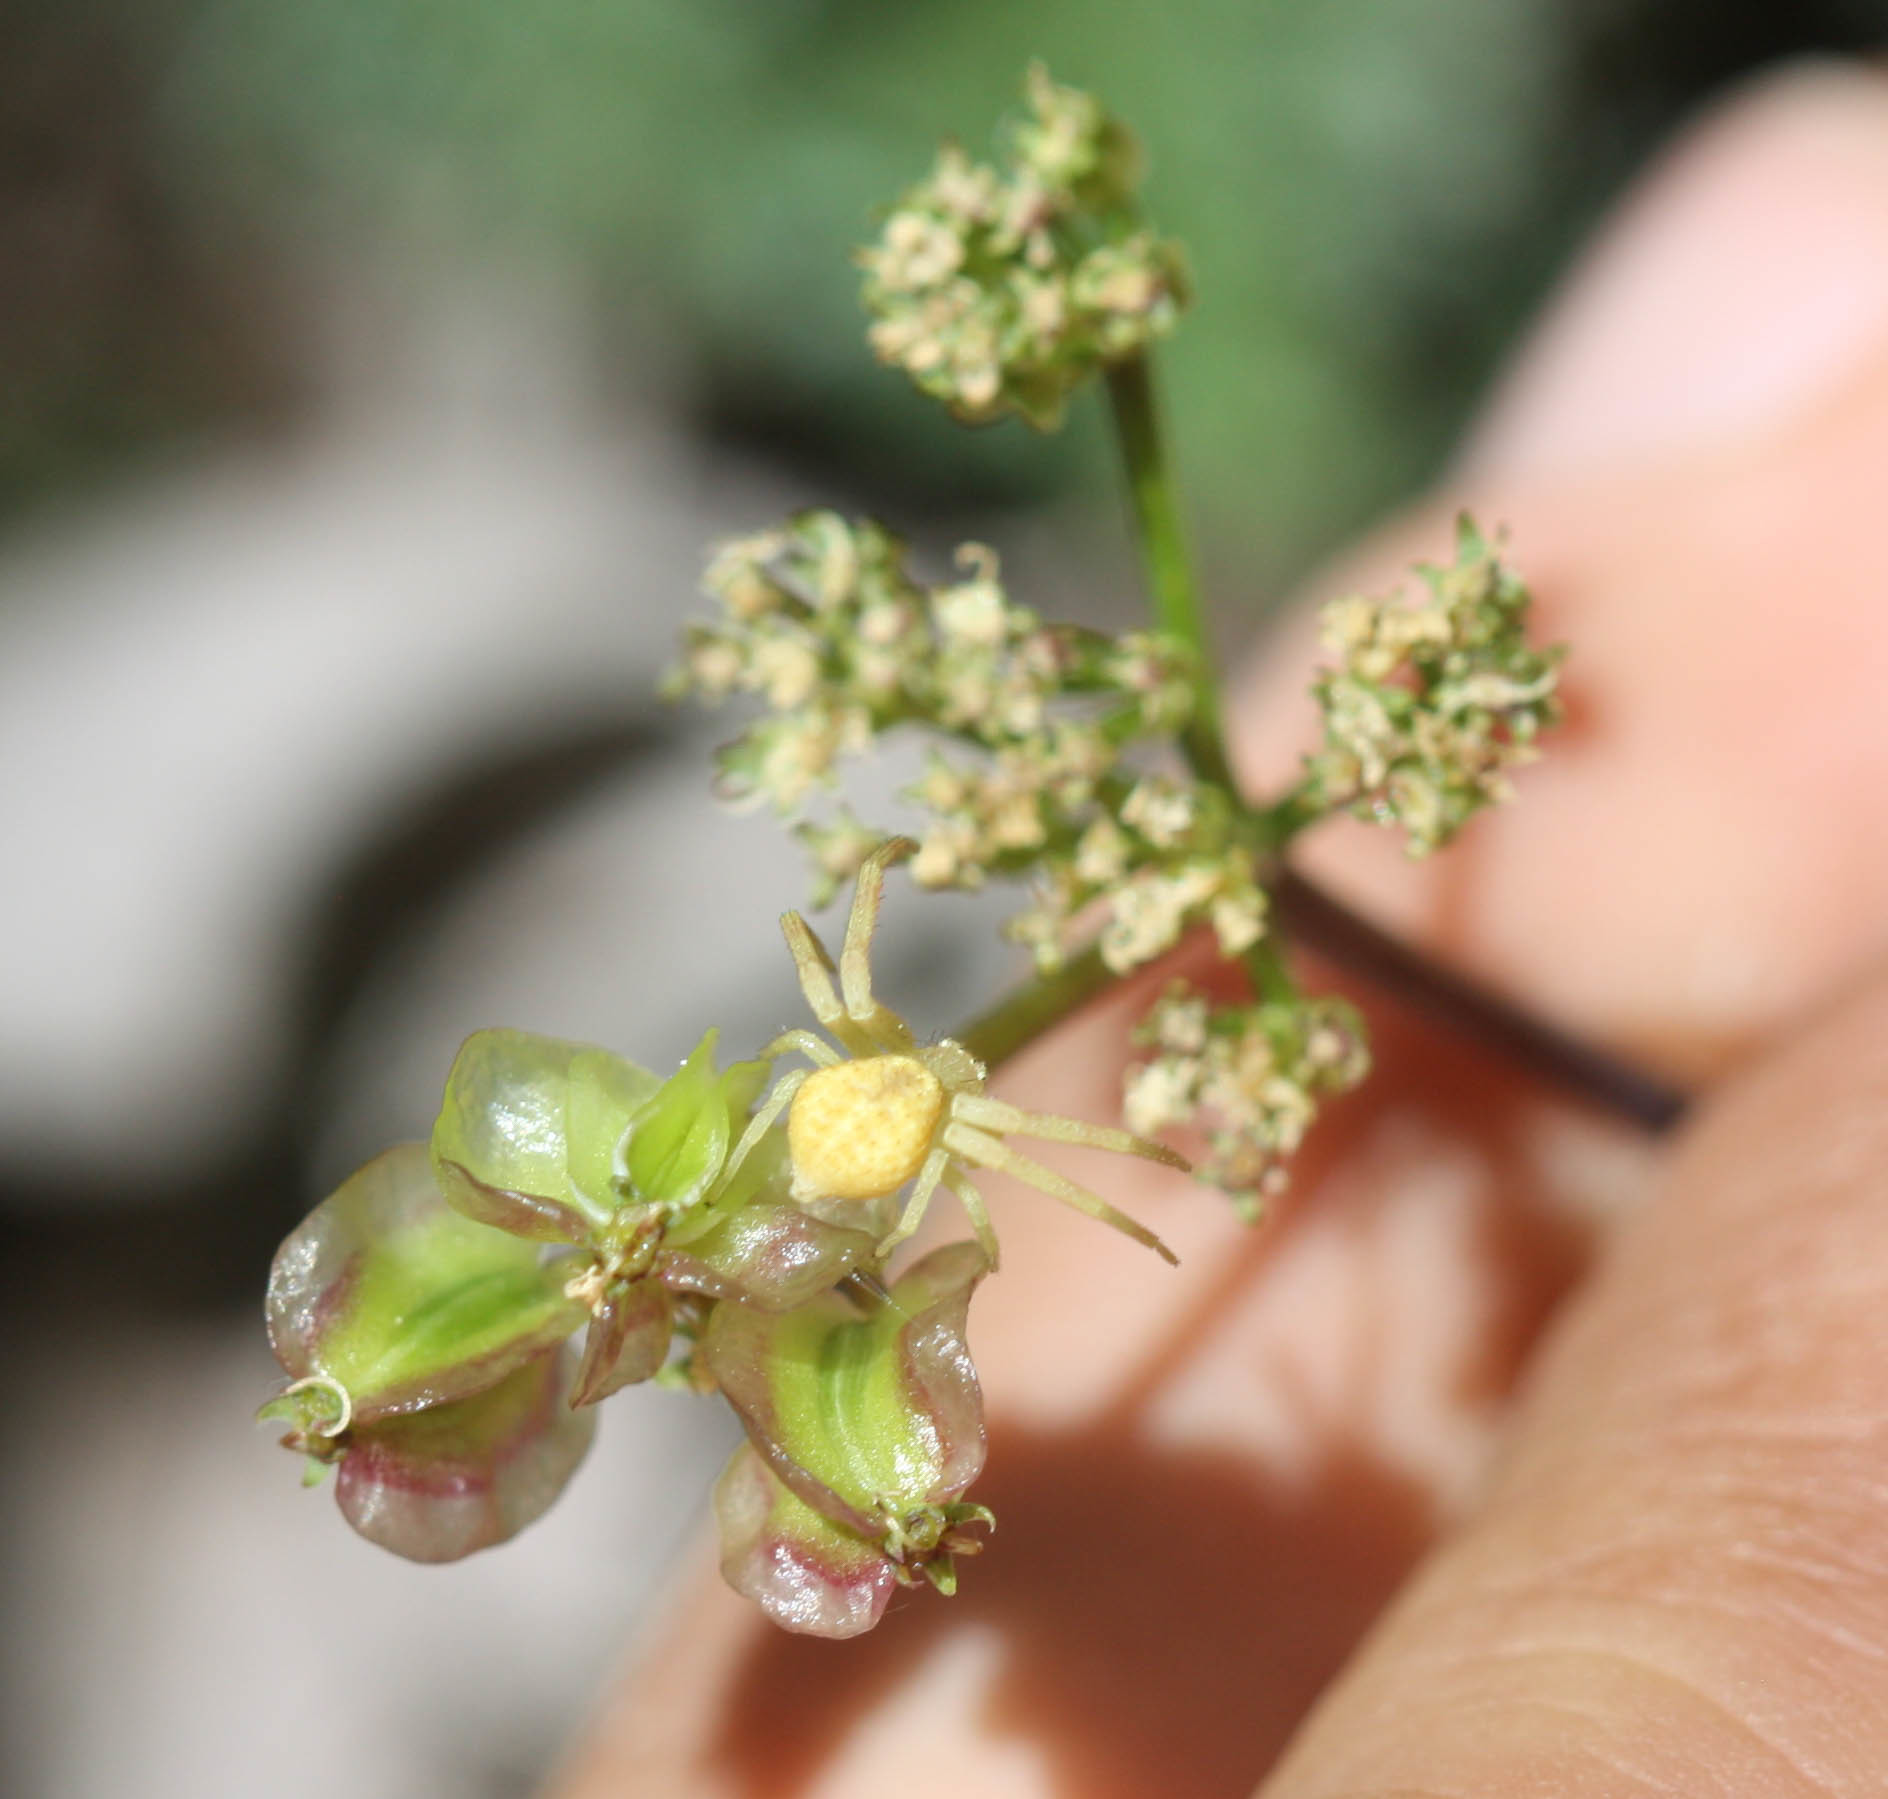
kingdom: Plantae
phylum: Tracheophyta
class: Magnoliopsida
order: Apiales
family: Apiaceae
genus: Pteryxia
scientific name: Pteryxia terebinthina
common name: Turpentine wavewing
